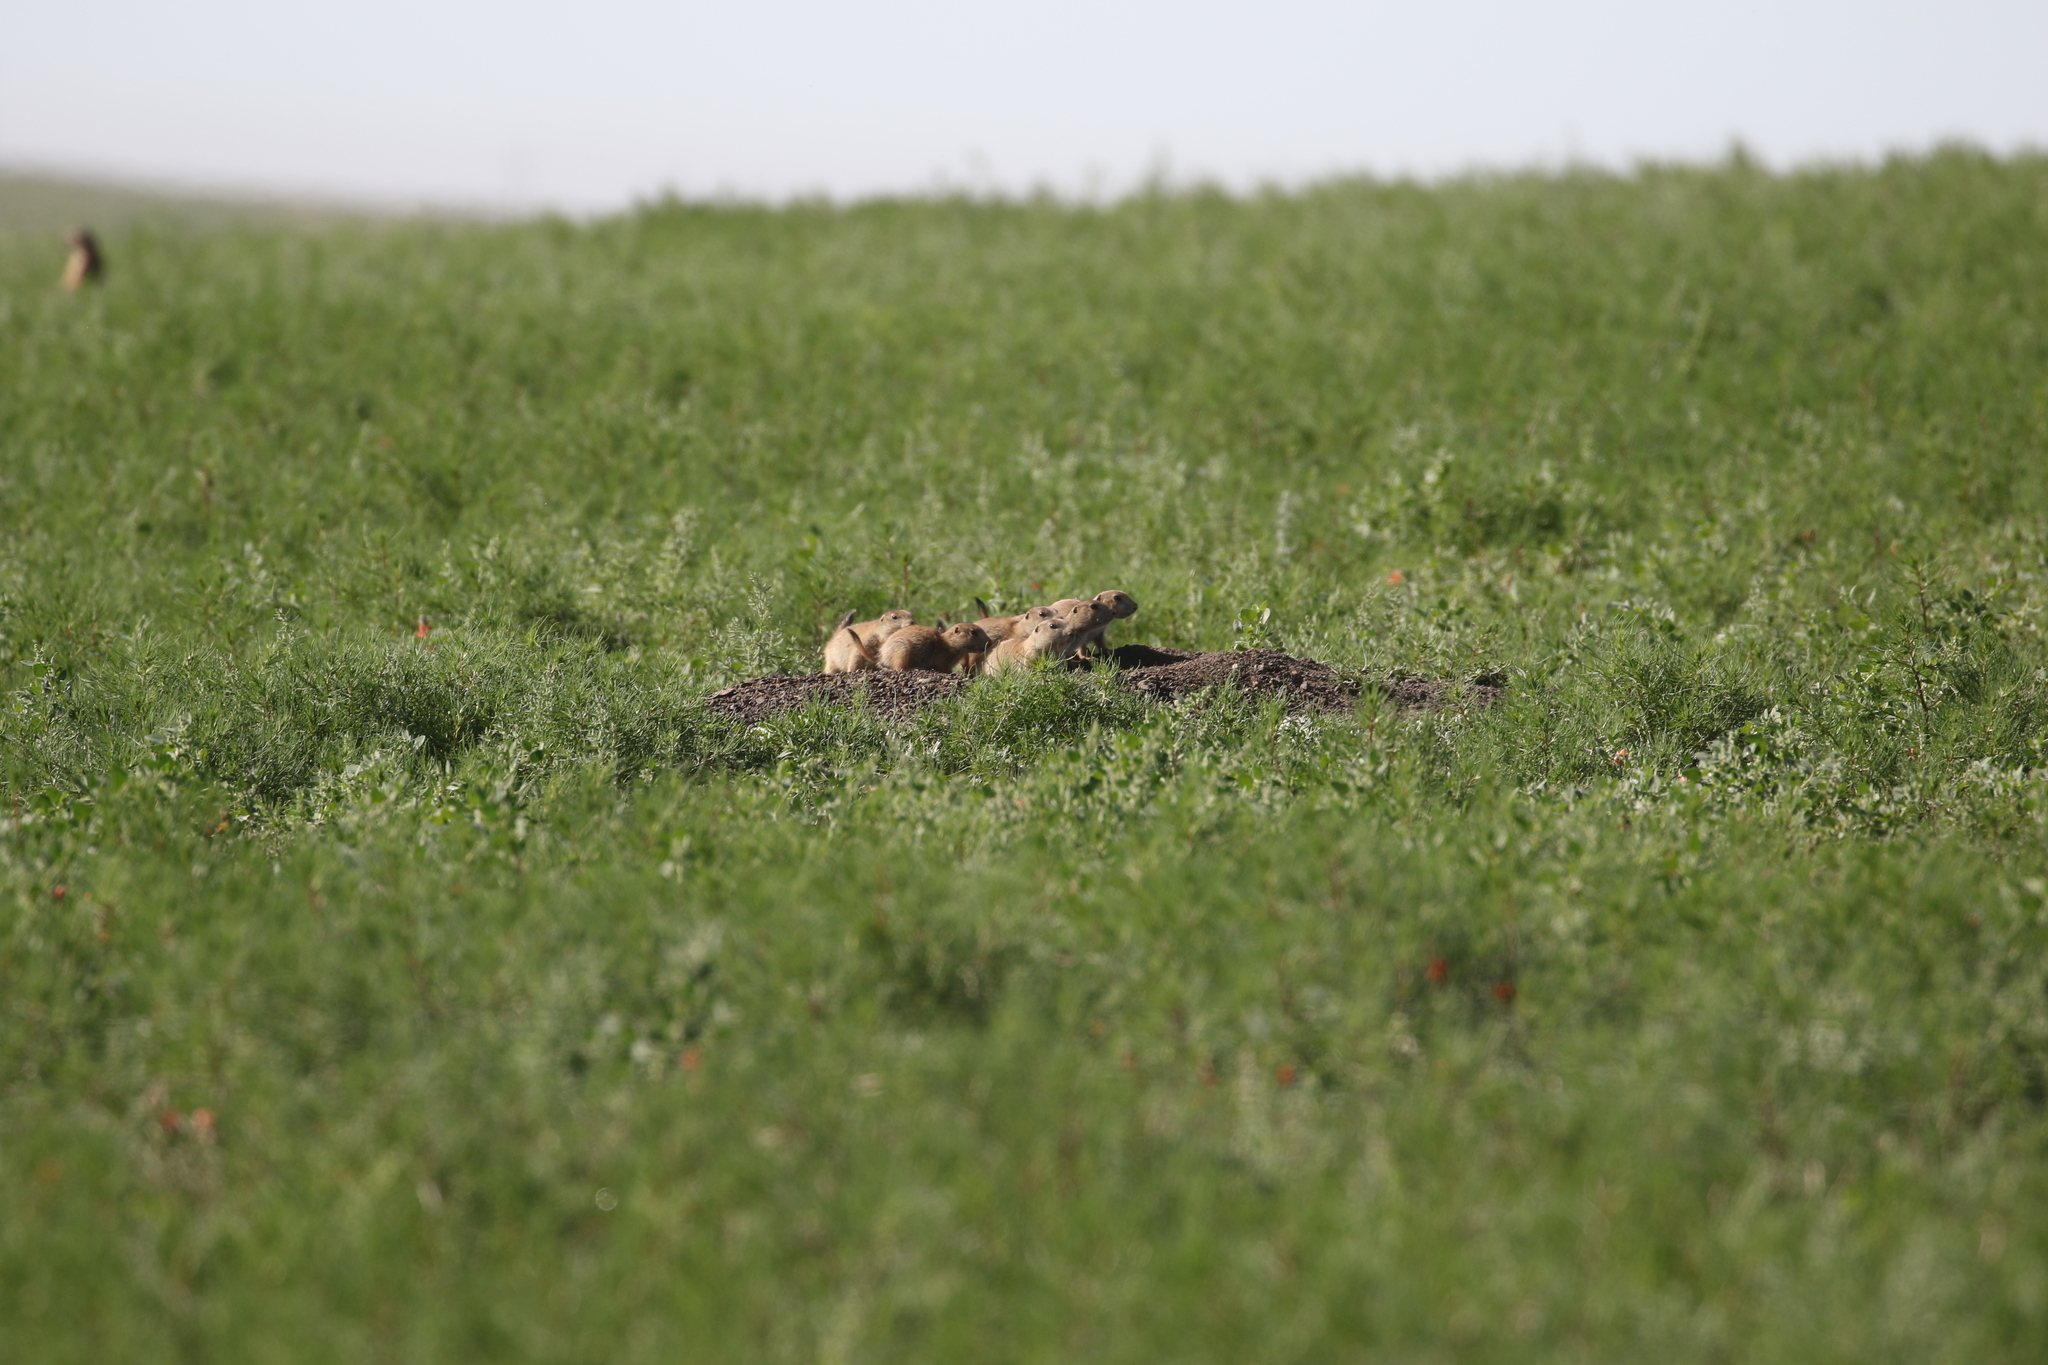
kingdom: Animalia
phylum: Chordata
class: Mammalia
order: Rodentia
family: Sciuridae
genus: Cynomys
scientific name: Cynomys ludovicianus
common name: Black-tailed prairie dog
